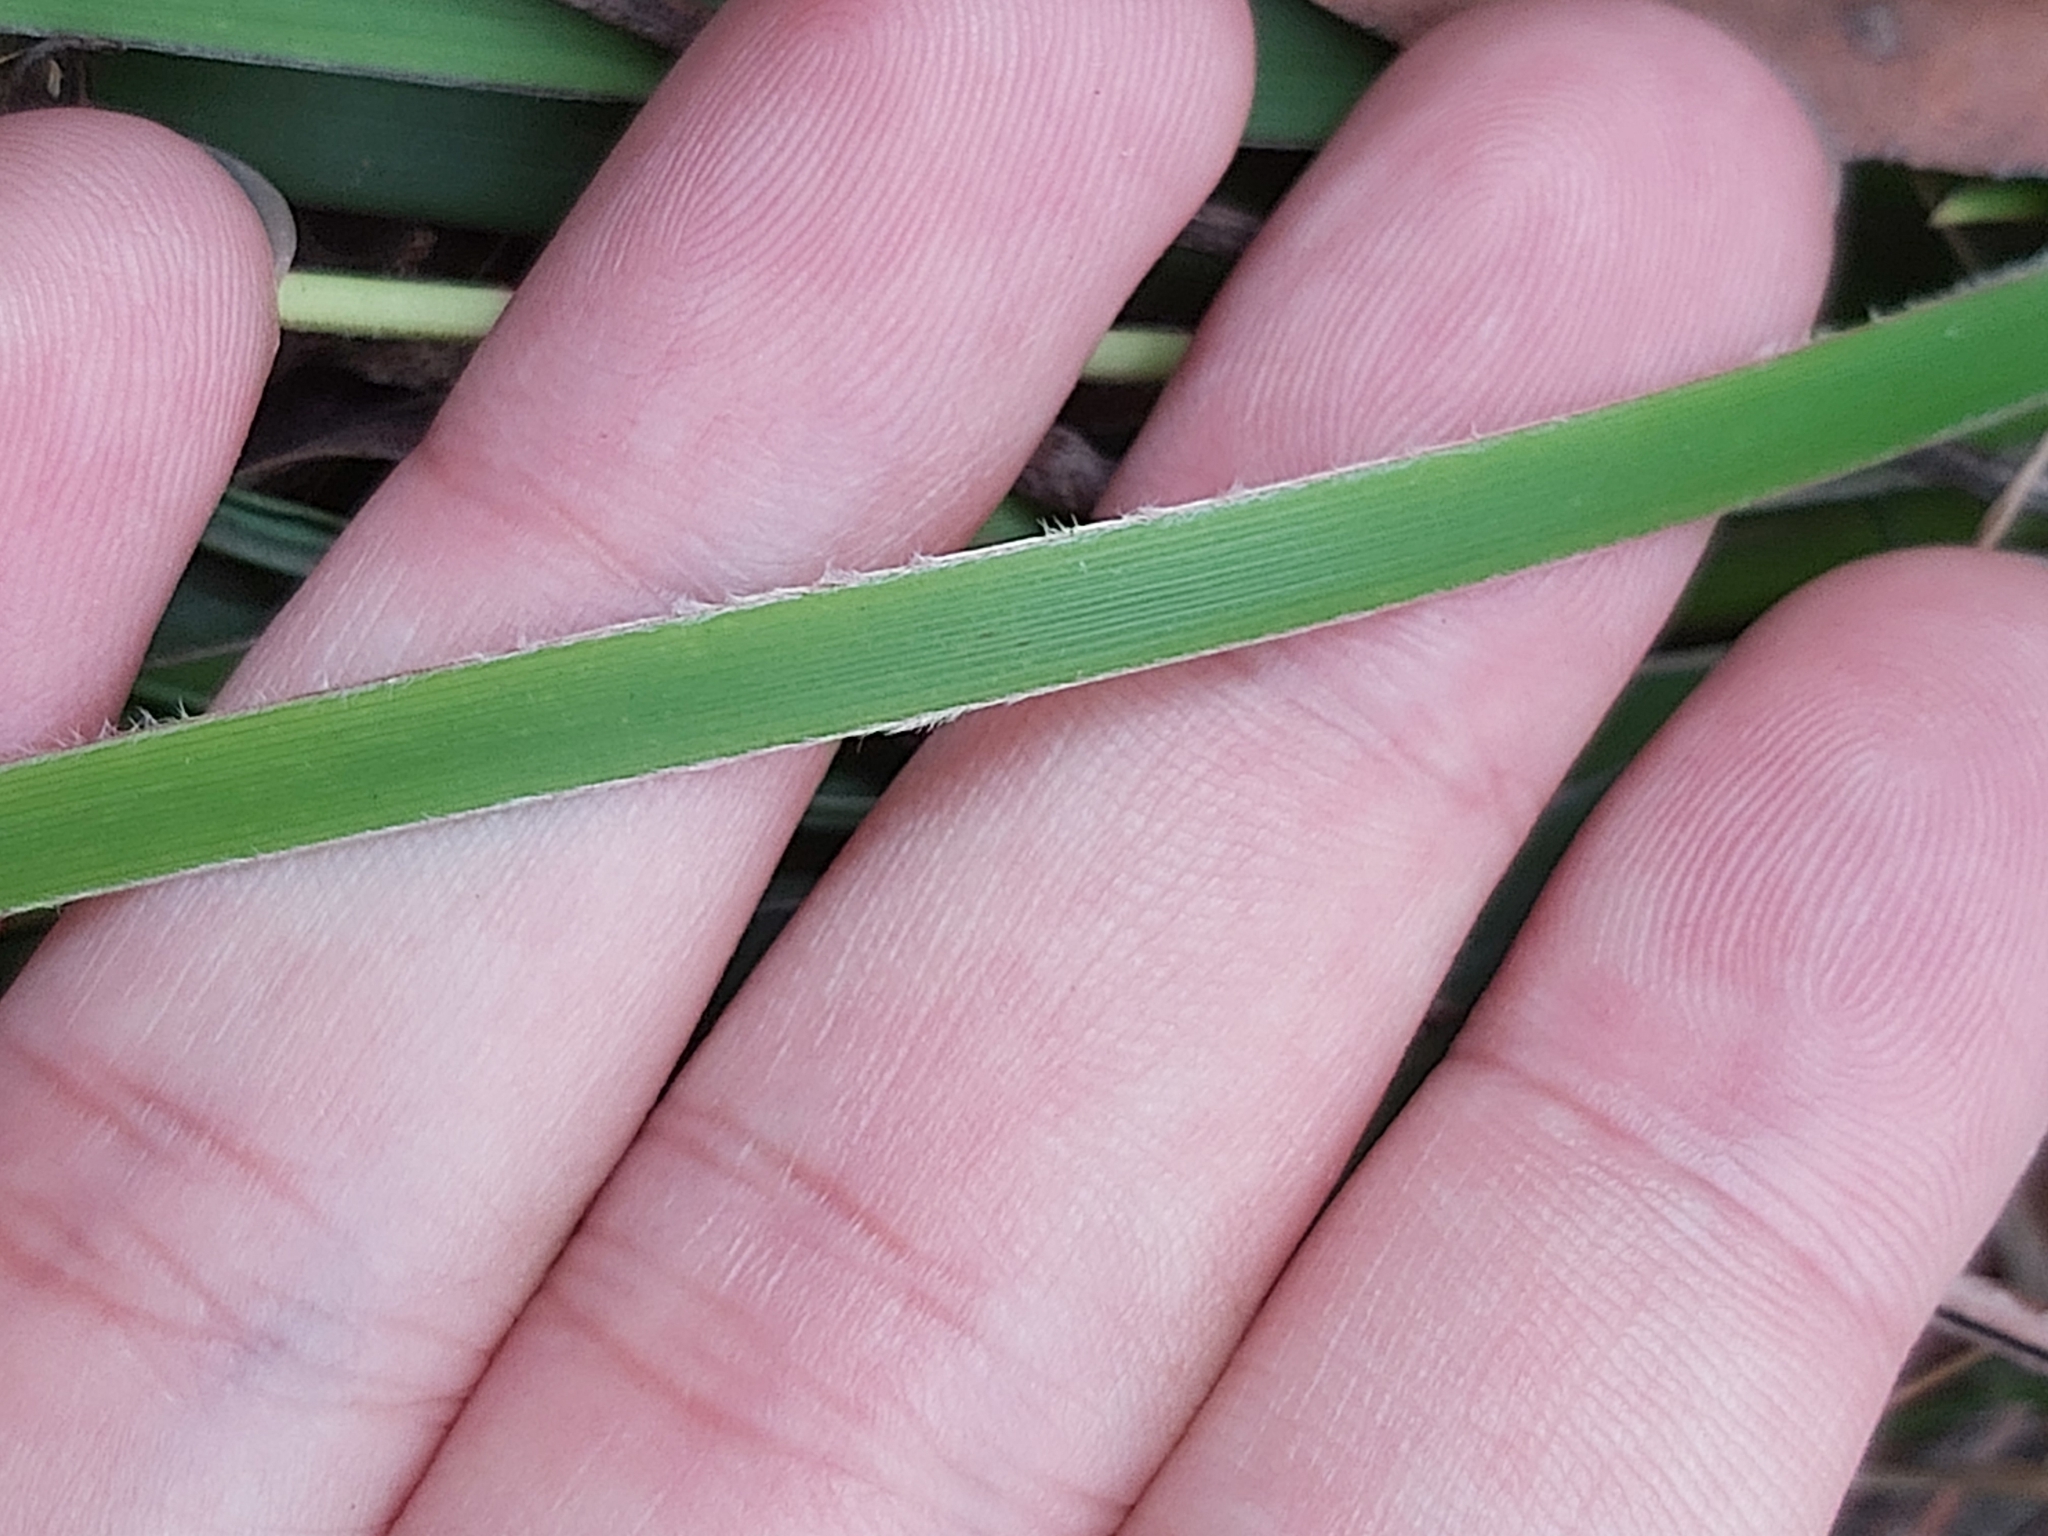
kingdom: Plantae
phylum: Tracheophyta
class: Liliopsida
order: Asparagales
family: Iridaceae
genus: Patersonia
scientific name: Patersonia sericea
